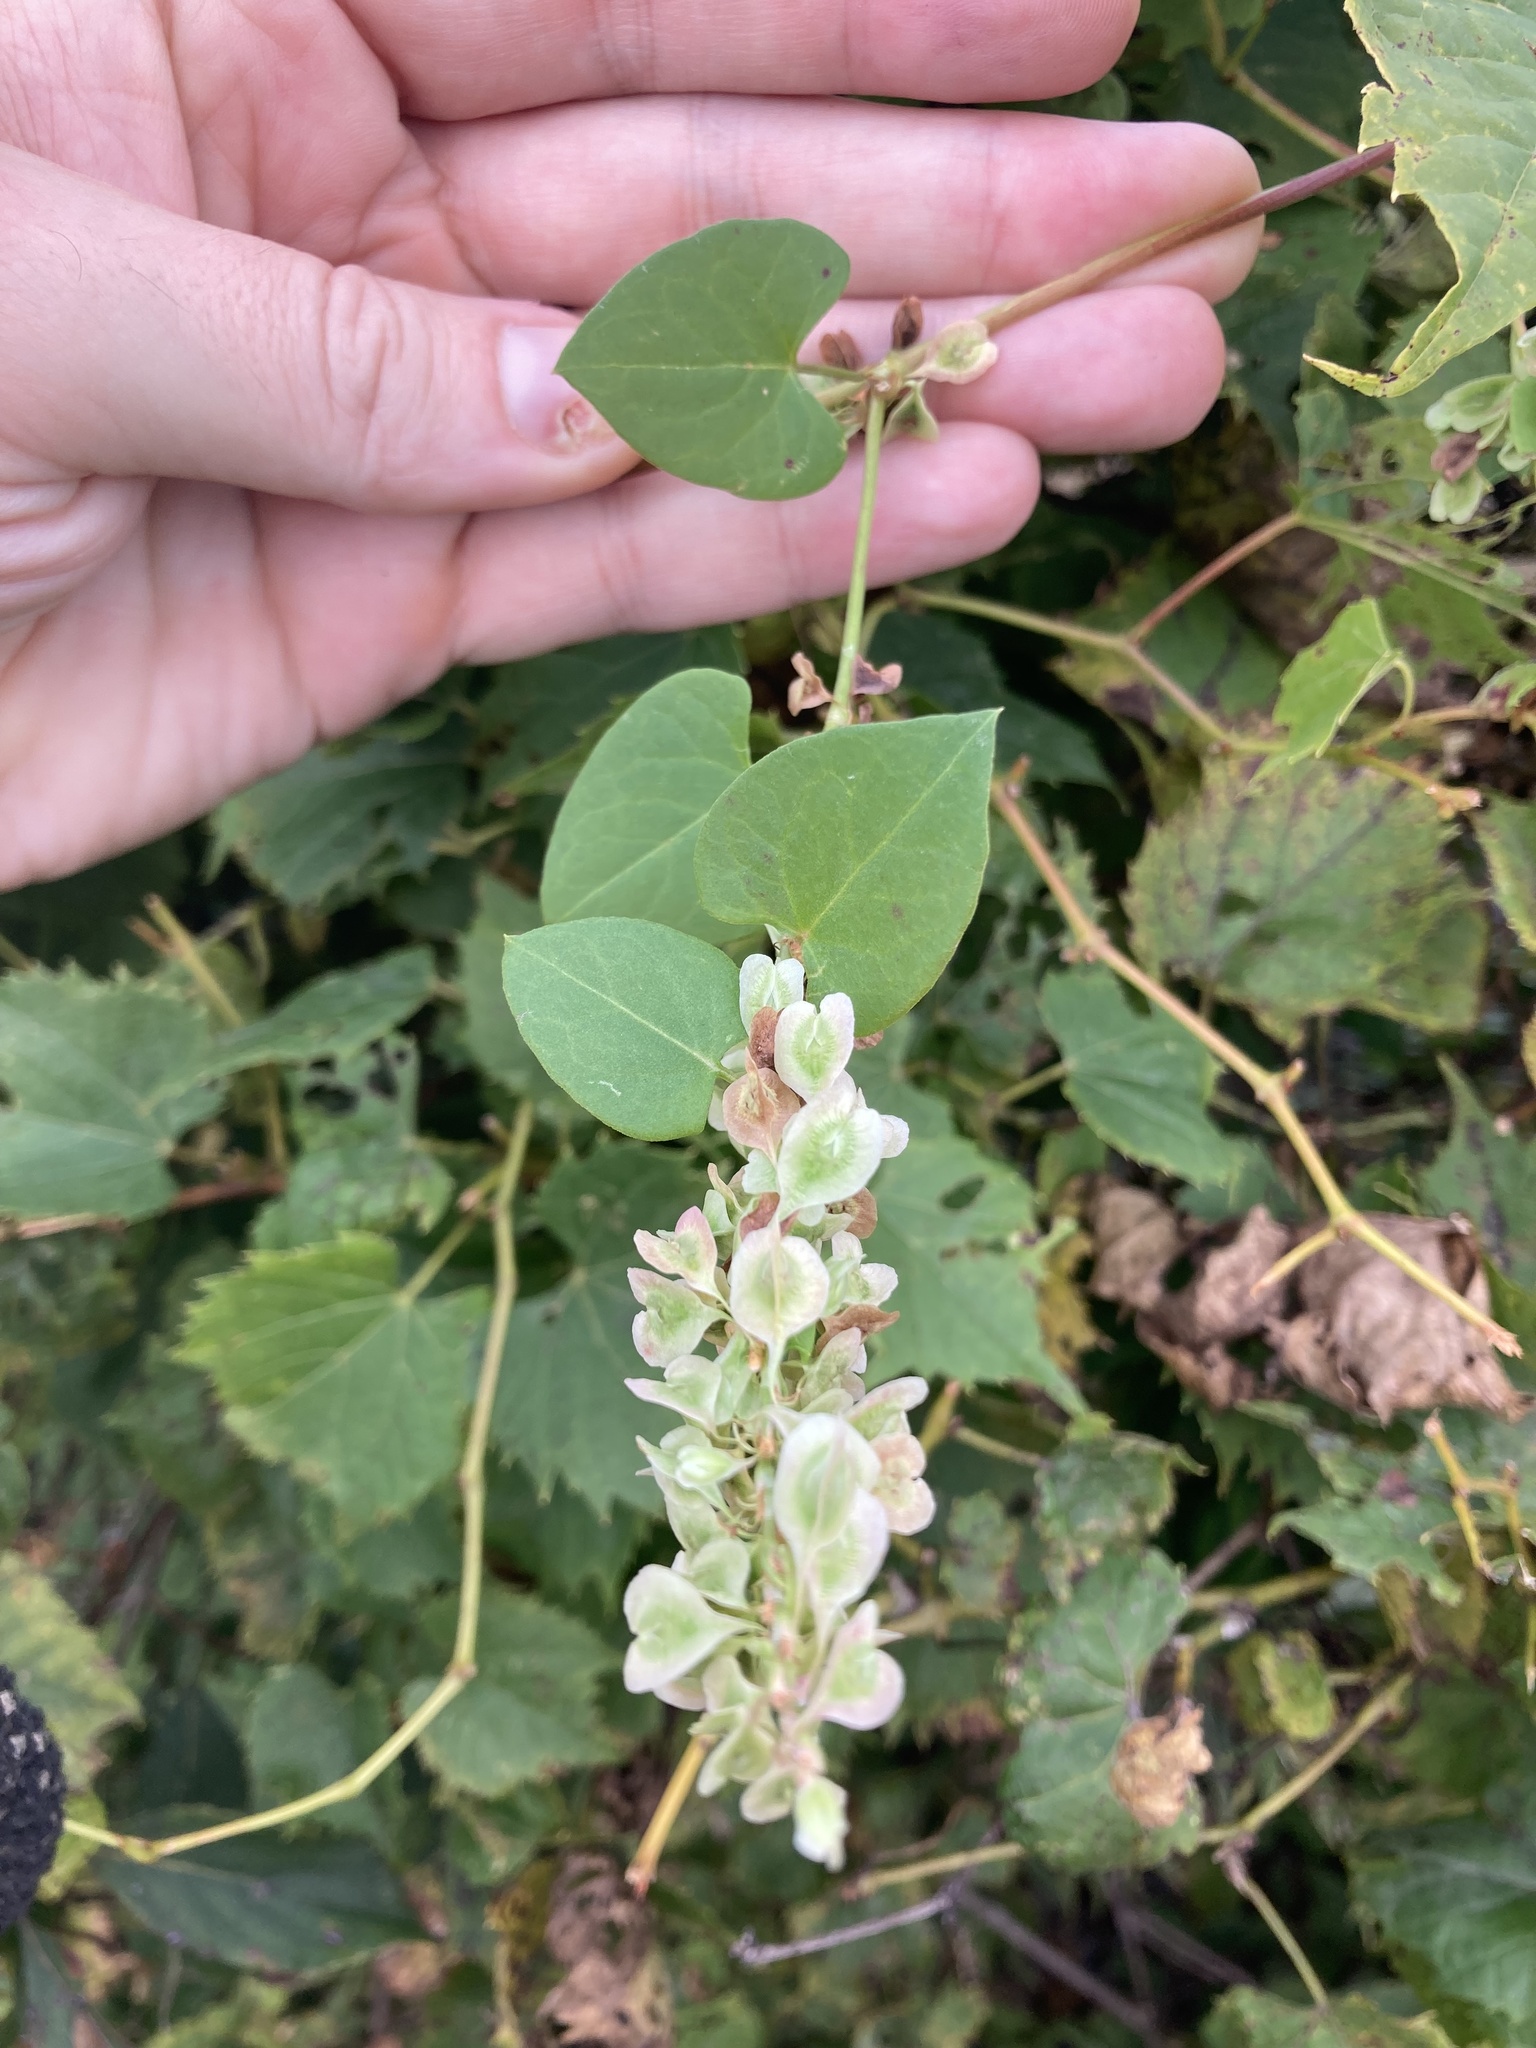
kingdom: Plantae
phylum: Tracheophyta
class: Magnoliopsida
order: Caryophyllales
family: Polygonaceae
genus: Fallopia
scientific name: Fallopia scandens
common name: Climbing false buckwheat
